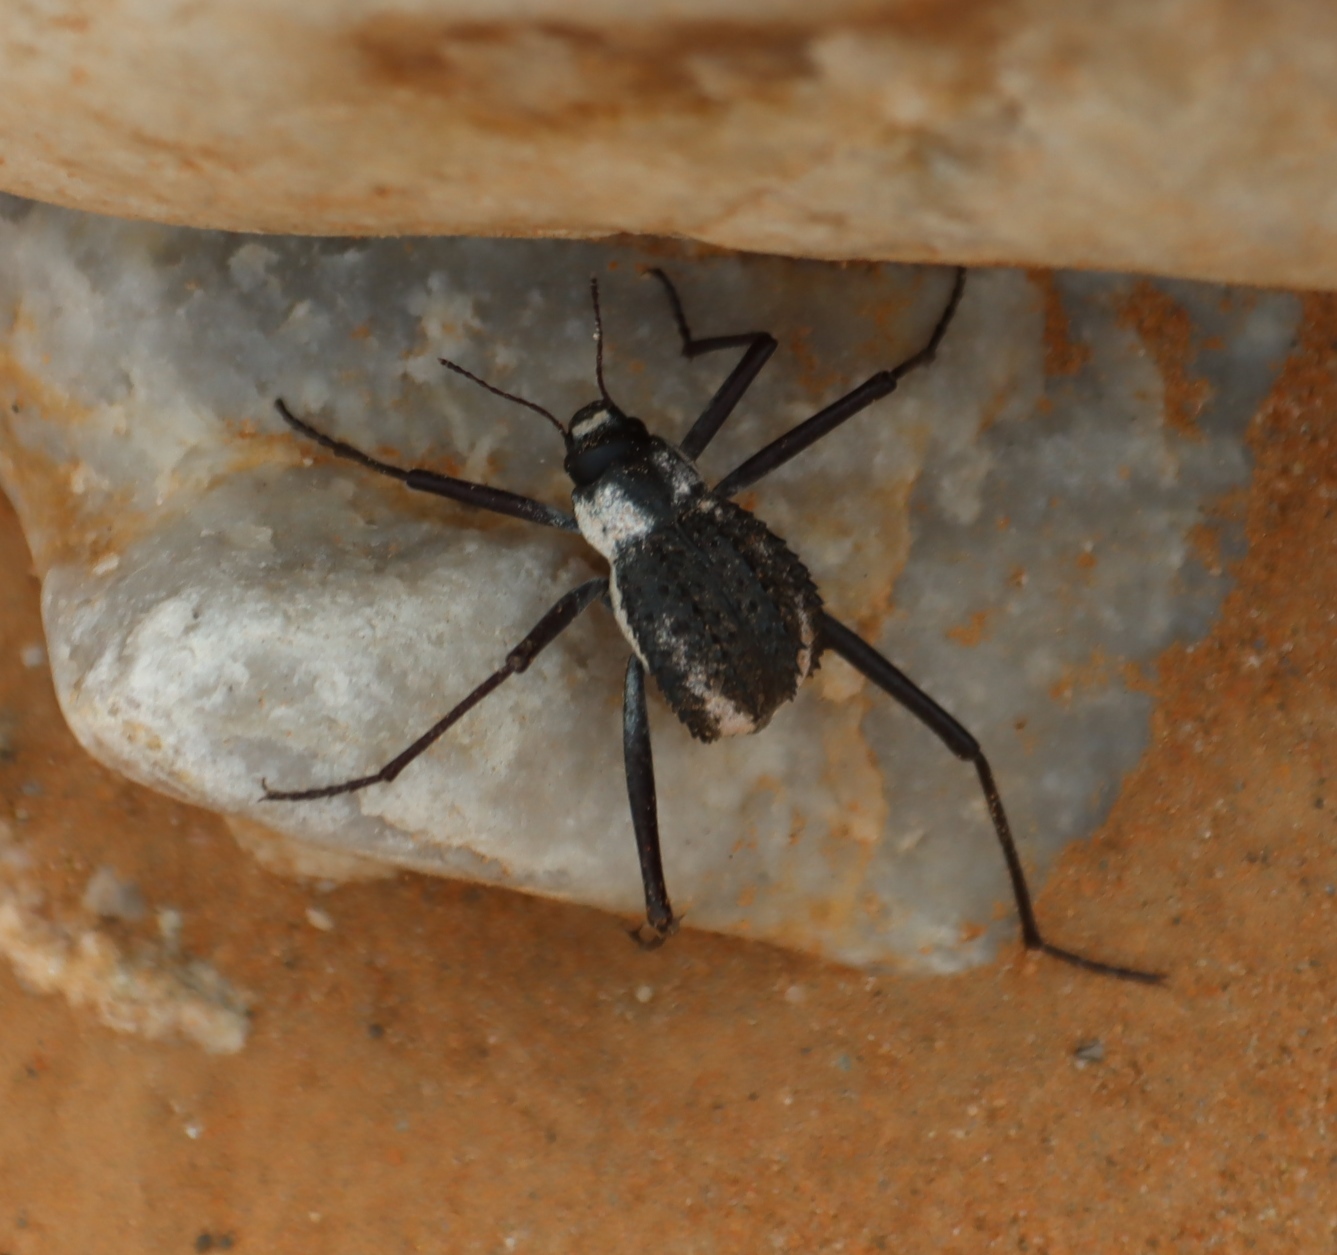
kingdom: Animalia
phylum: Arthropoda
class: Insecta
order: Coleoptera
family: Tenebrionidae
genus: Stenocara
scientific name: Stenocara
